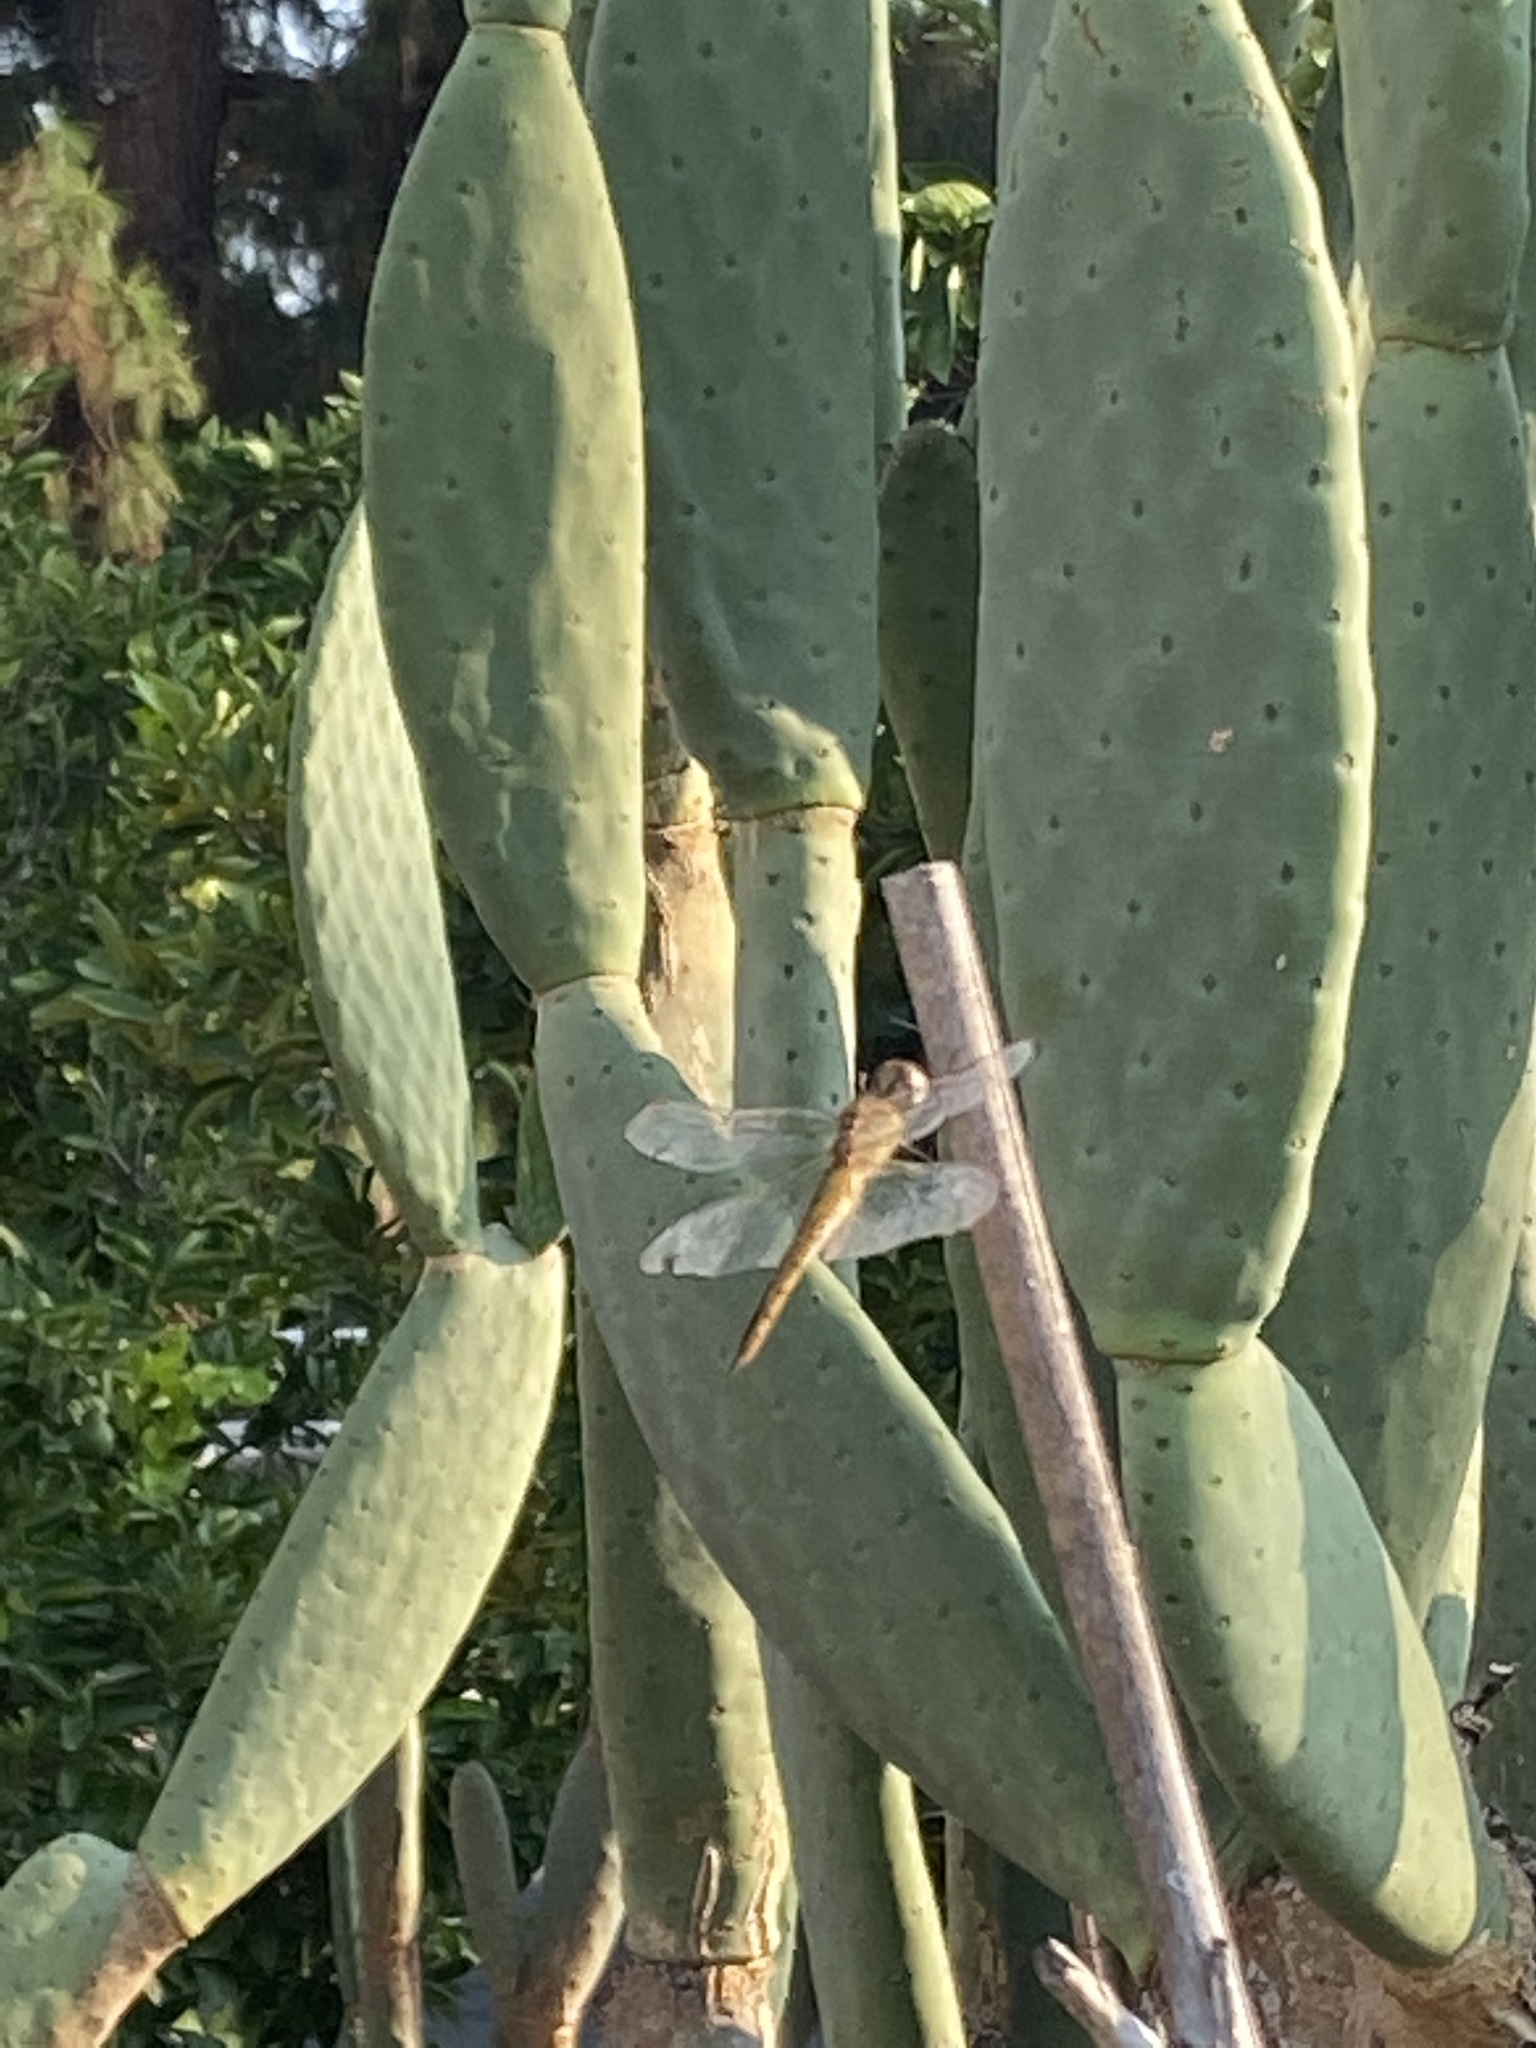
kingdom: Animalia
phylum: Arthropoda
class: Insecta
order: Odonata
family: Libellulidae
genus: Pantala
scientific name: Pantala flavescens
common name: Wandering glider
